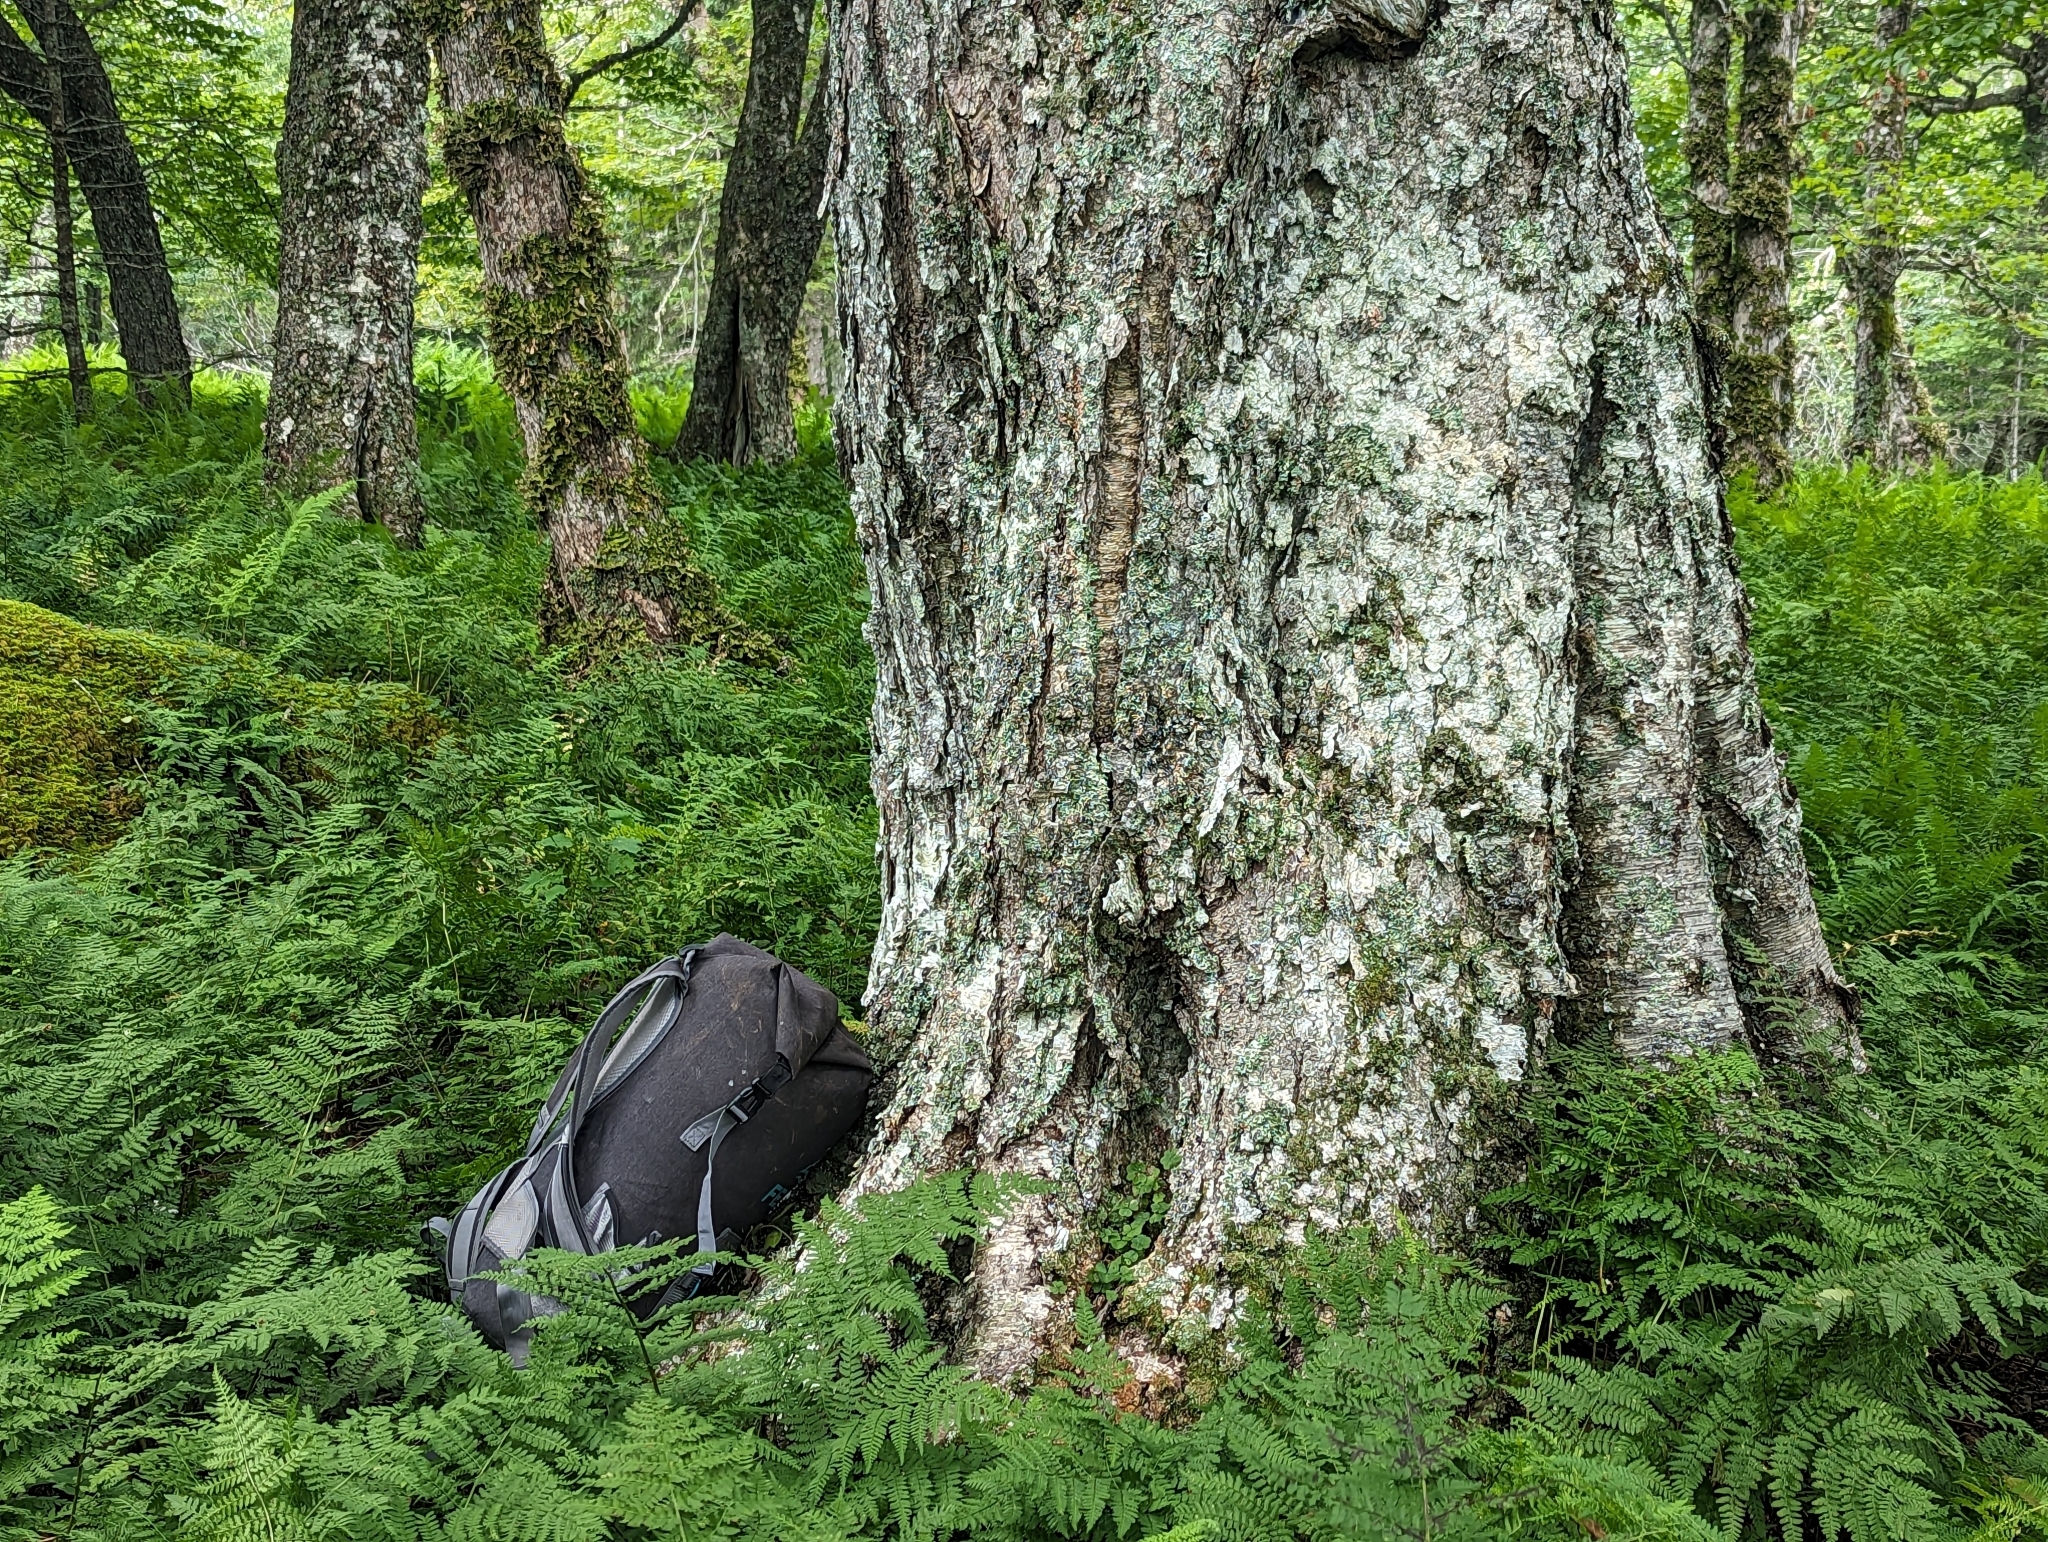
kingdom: Plantae
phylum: Tracheophyta
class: Magnoliopsida
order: Fagales
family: Betulaceae
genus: Betula
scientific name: Betula alleghaniensis
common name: Yellow birch
